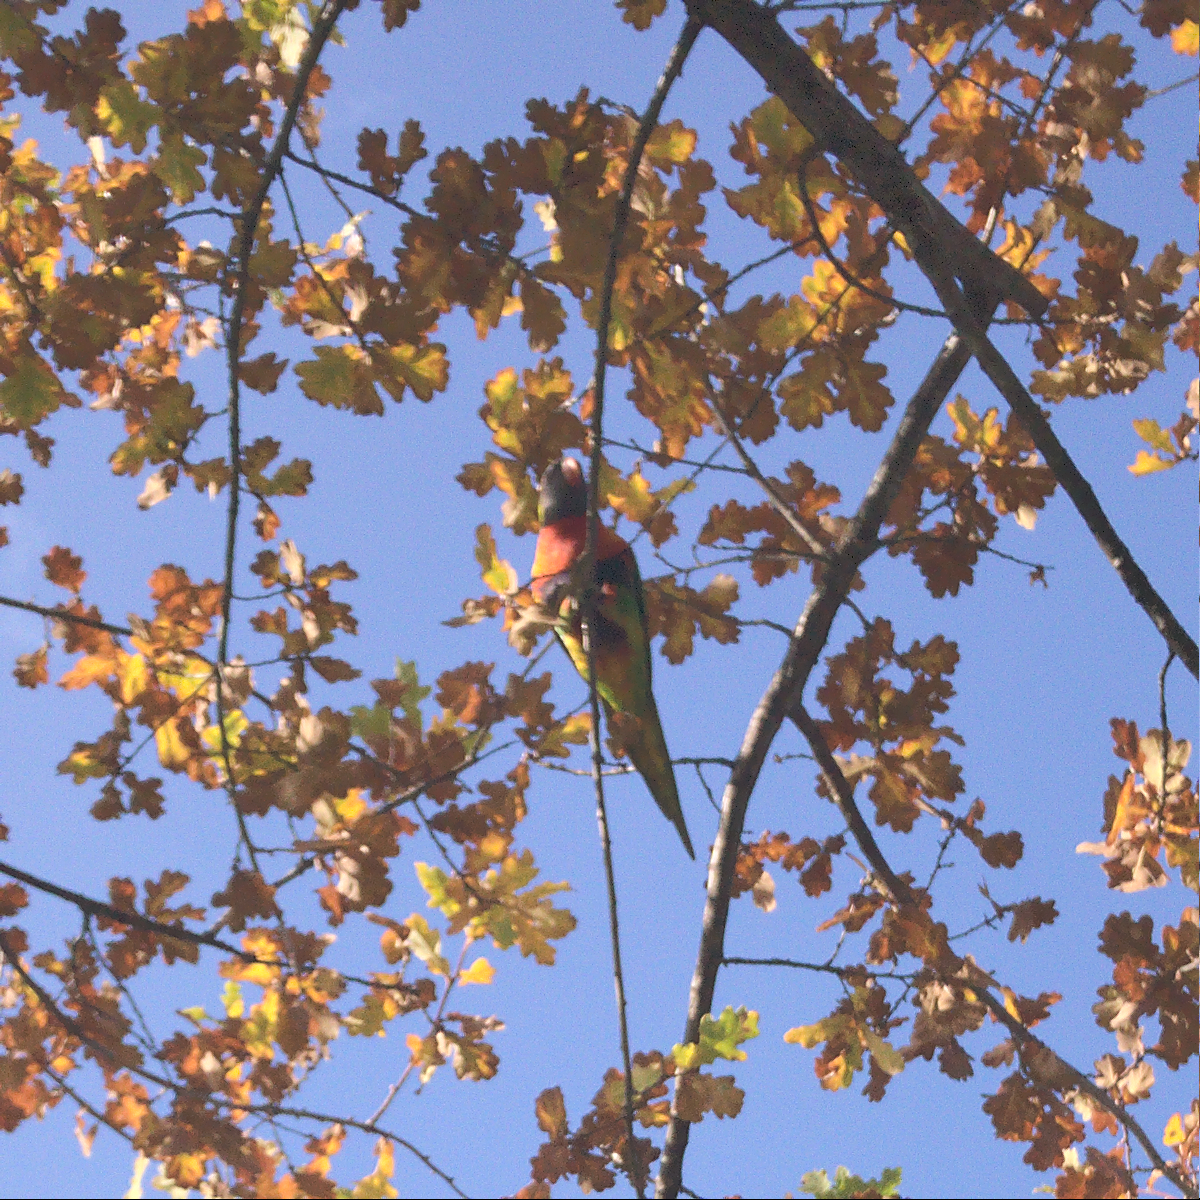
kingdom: Animalia
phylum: Chordata
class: Aves
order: Psittaciformes
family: Psittacidae
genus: Trichoglossus
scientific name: Trichoglossus haematodus
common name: Coconut lorikeet
